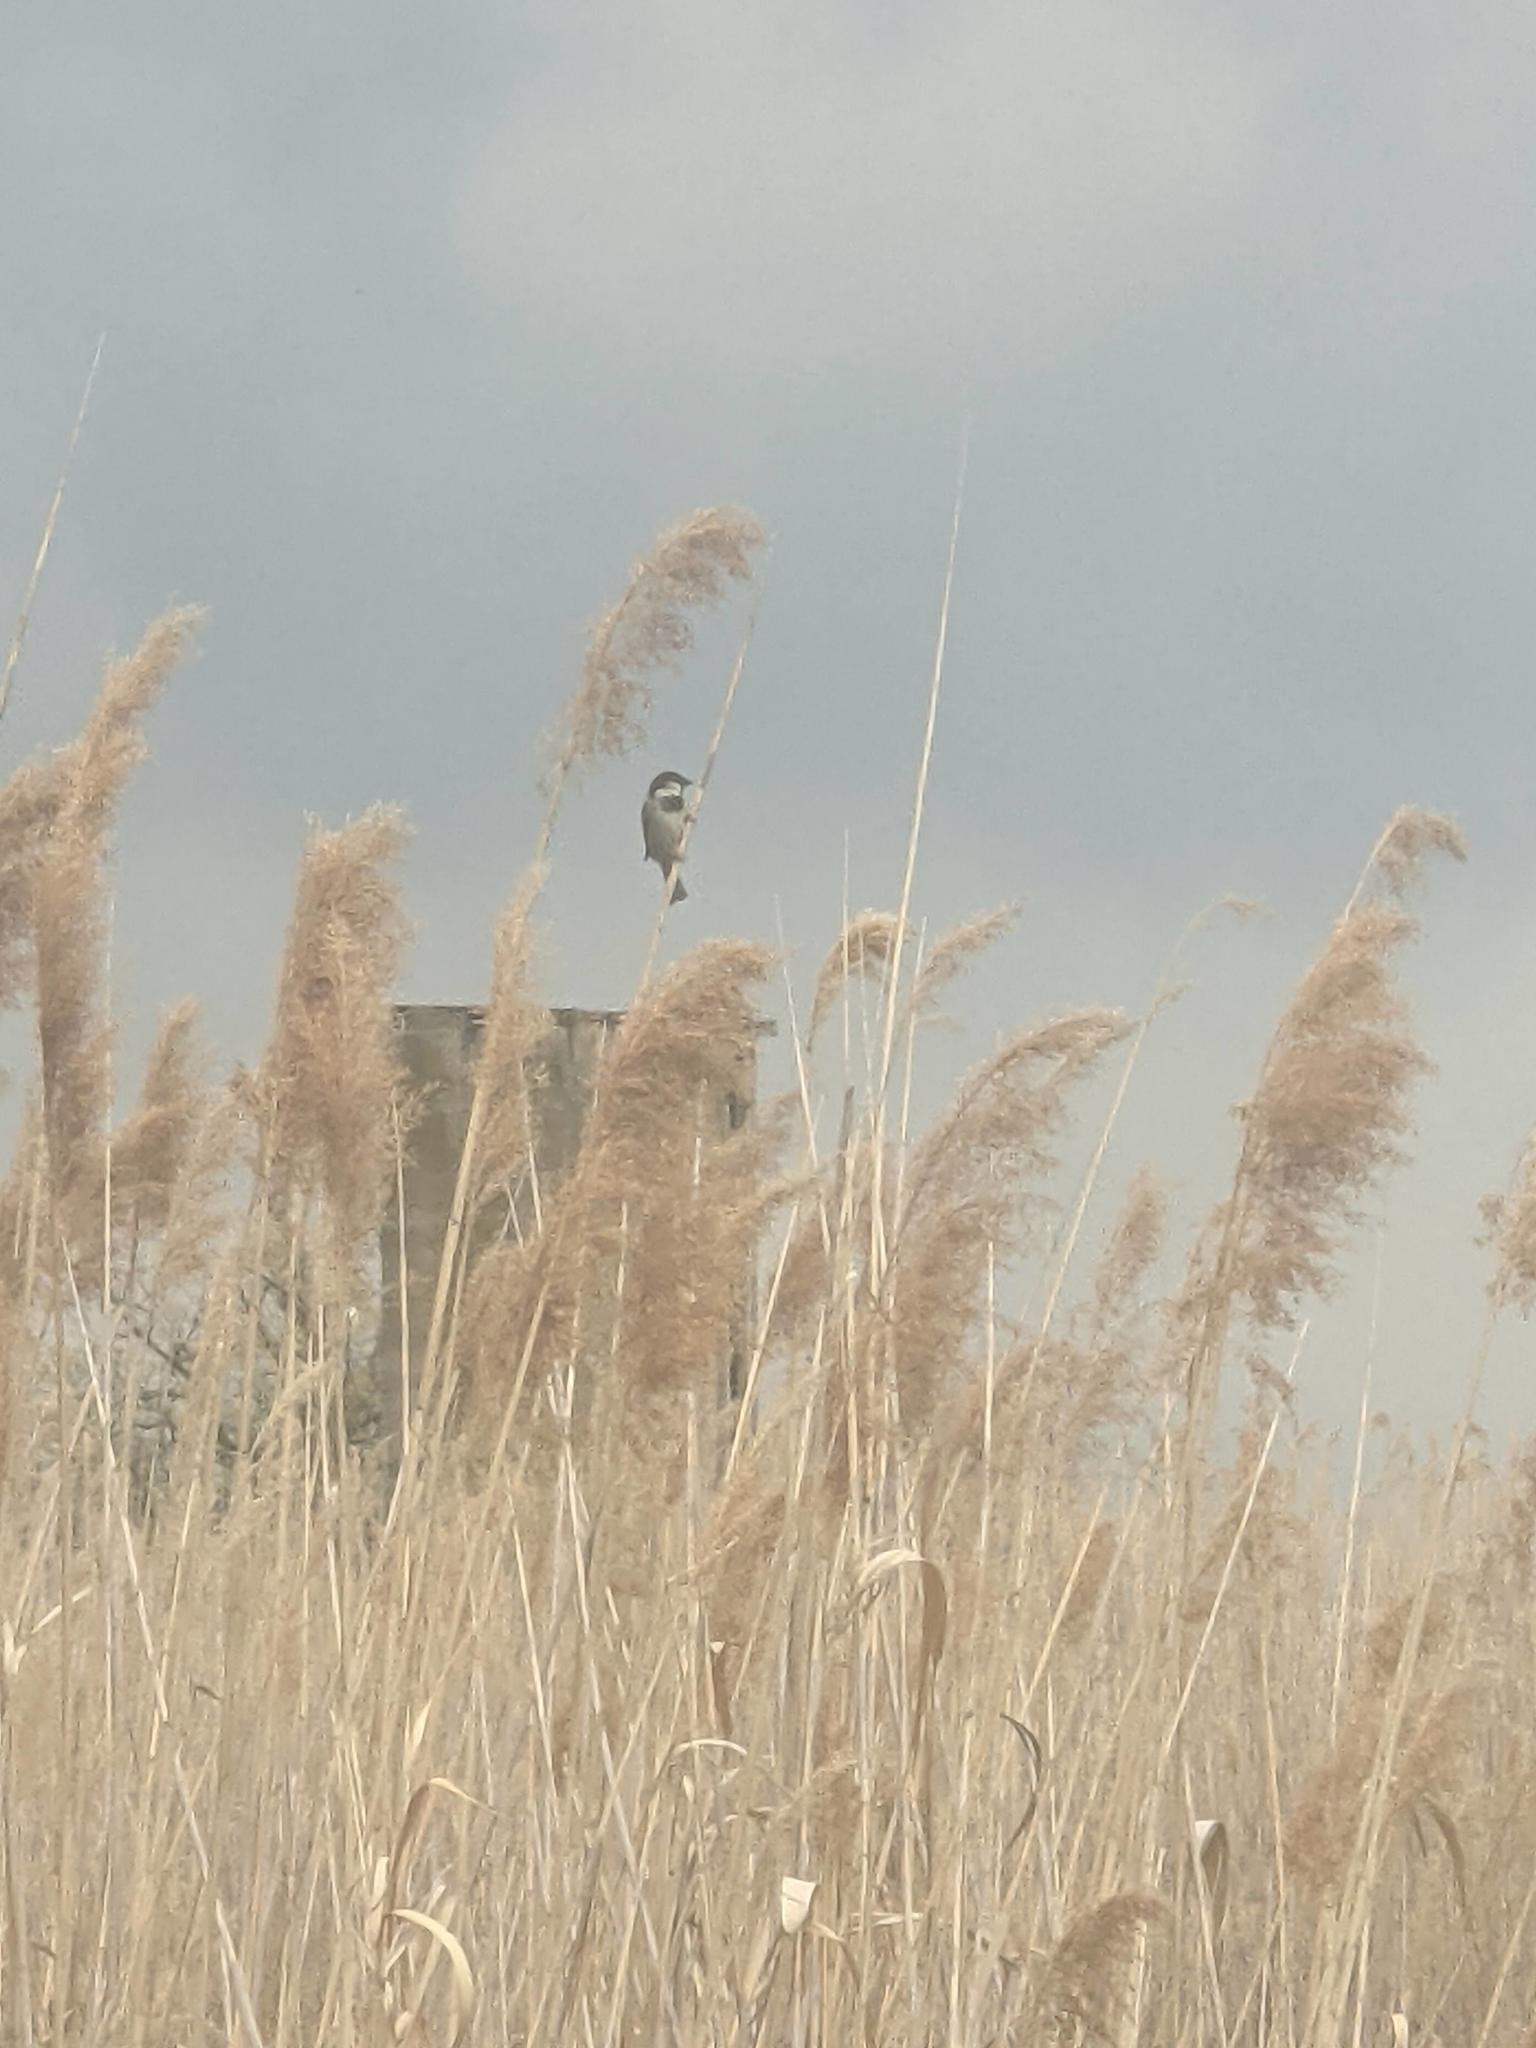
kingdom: Animalia
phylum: Chordata
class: Aves
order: Passeriformes
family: Passeridae
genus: Passer
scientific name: Passer domesticus
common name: House sparrow
